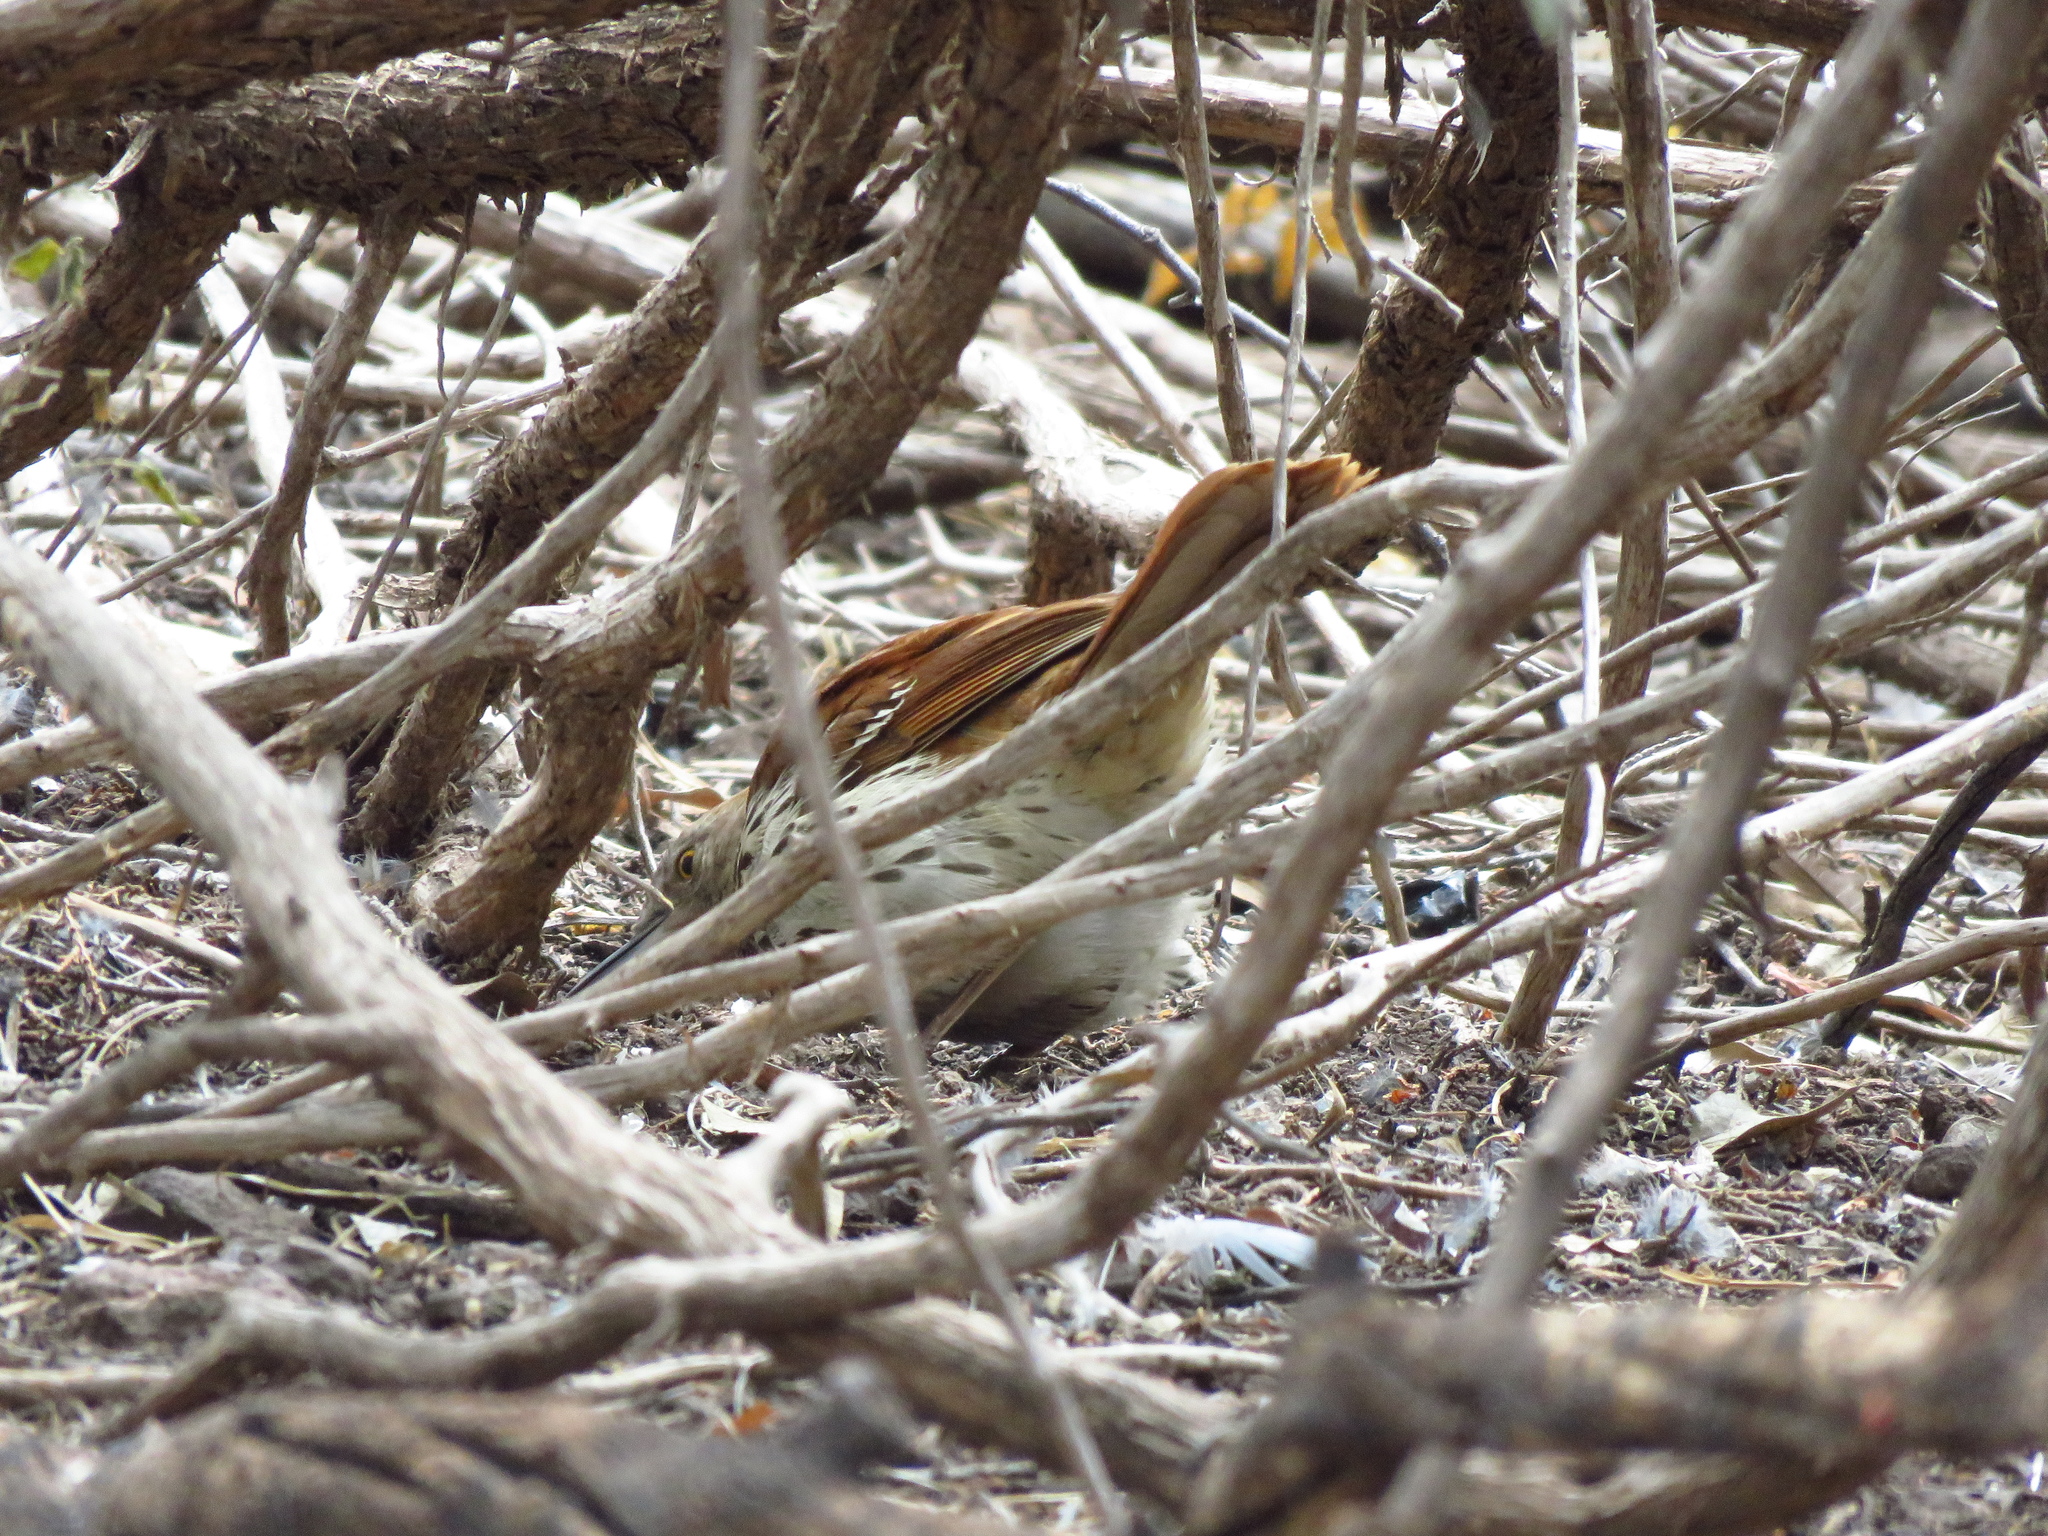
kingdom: Animalia
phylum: Chordata
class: Aves
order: Passeriformes
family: Mimidae
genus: Toxostoma
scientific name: Toxostoma rufum
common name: Brown thrasher
